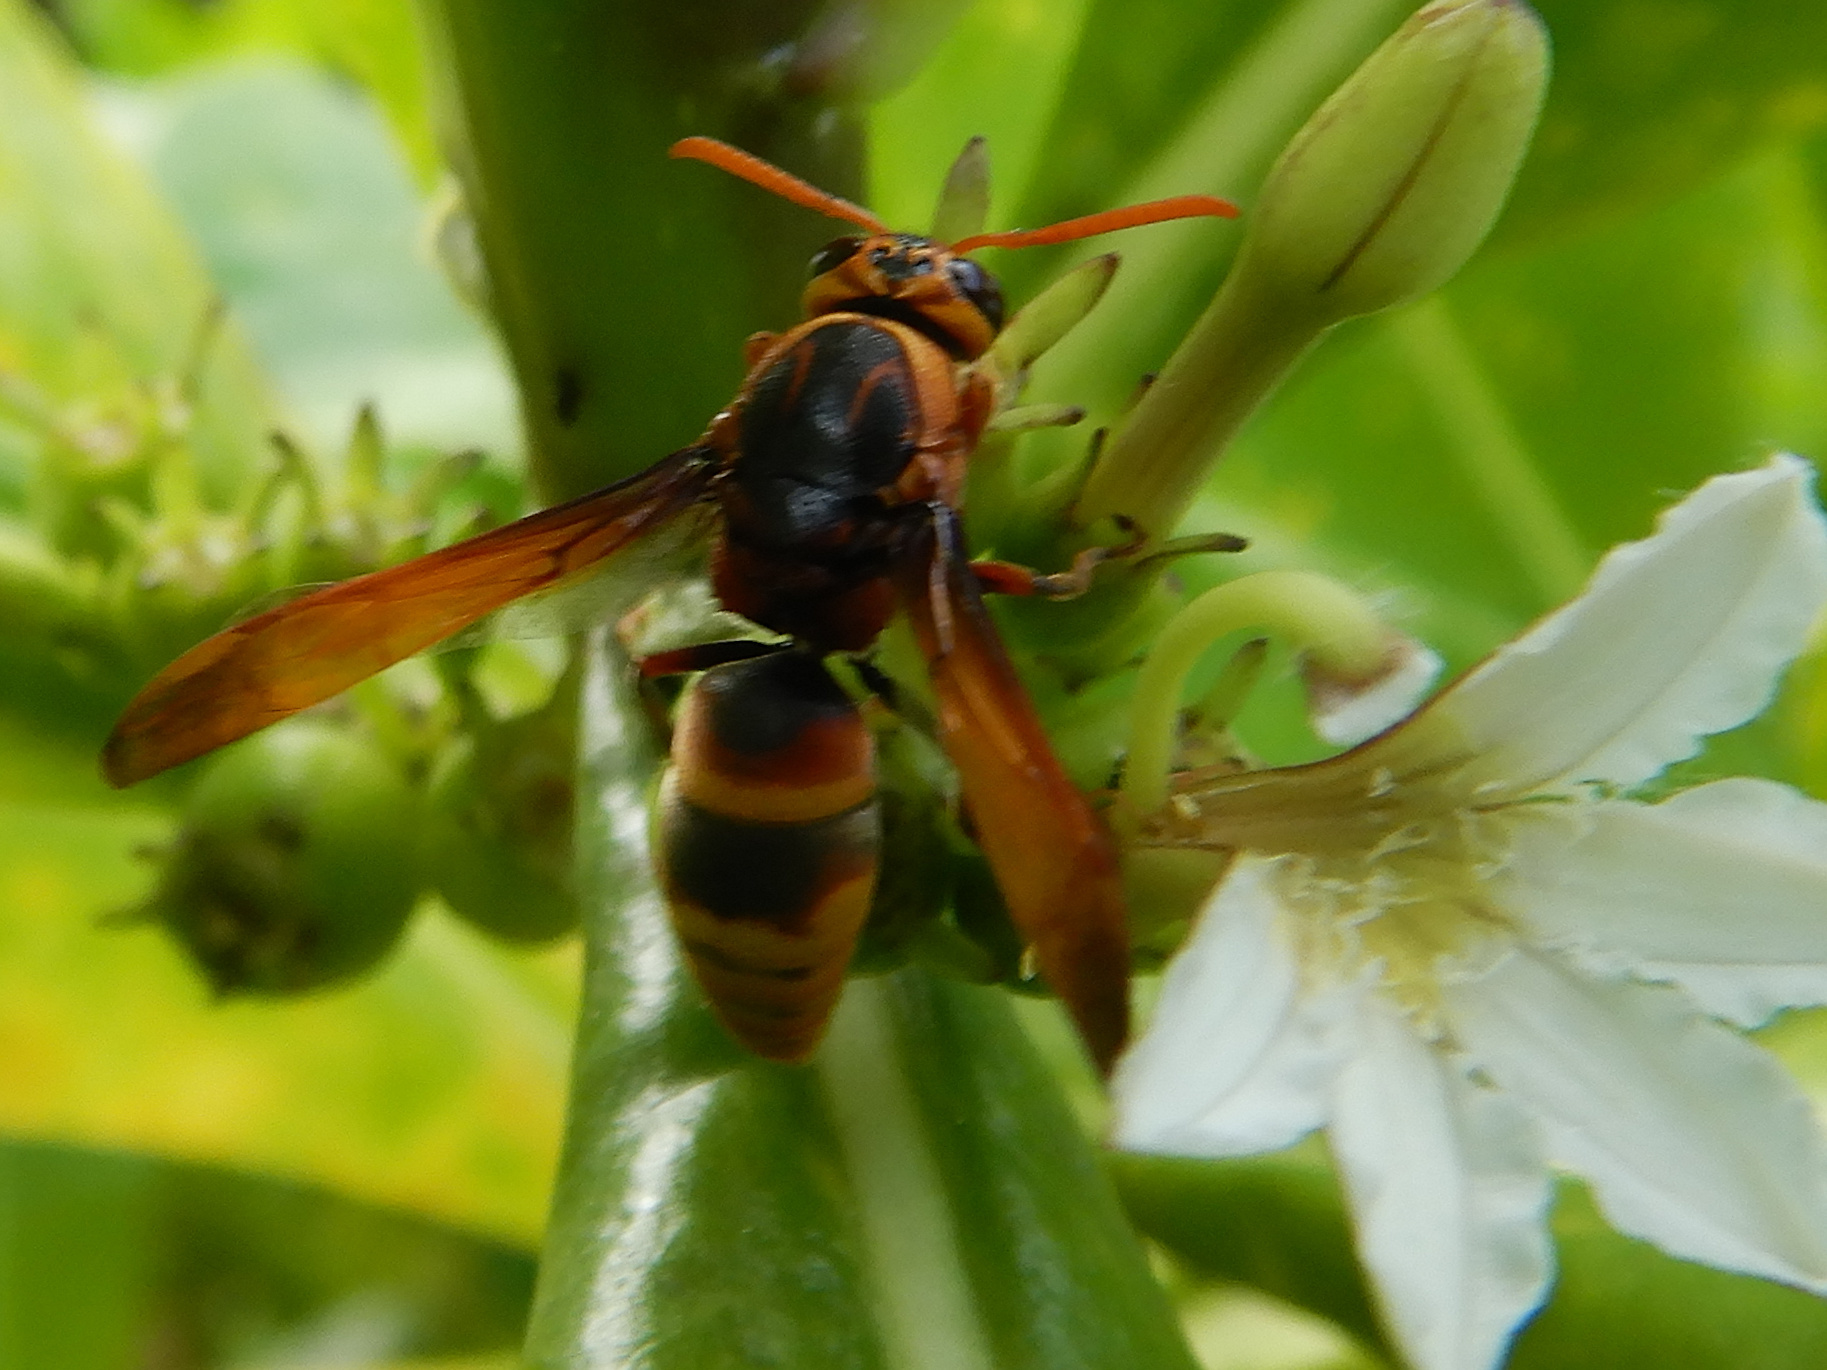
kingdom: Animalia
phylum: Arthropoda
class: Insecta
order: Hymenoptera
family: Eumenidae
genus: Rhynchium
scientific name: Rhynchium haemorrhoidale
